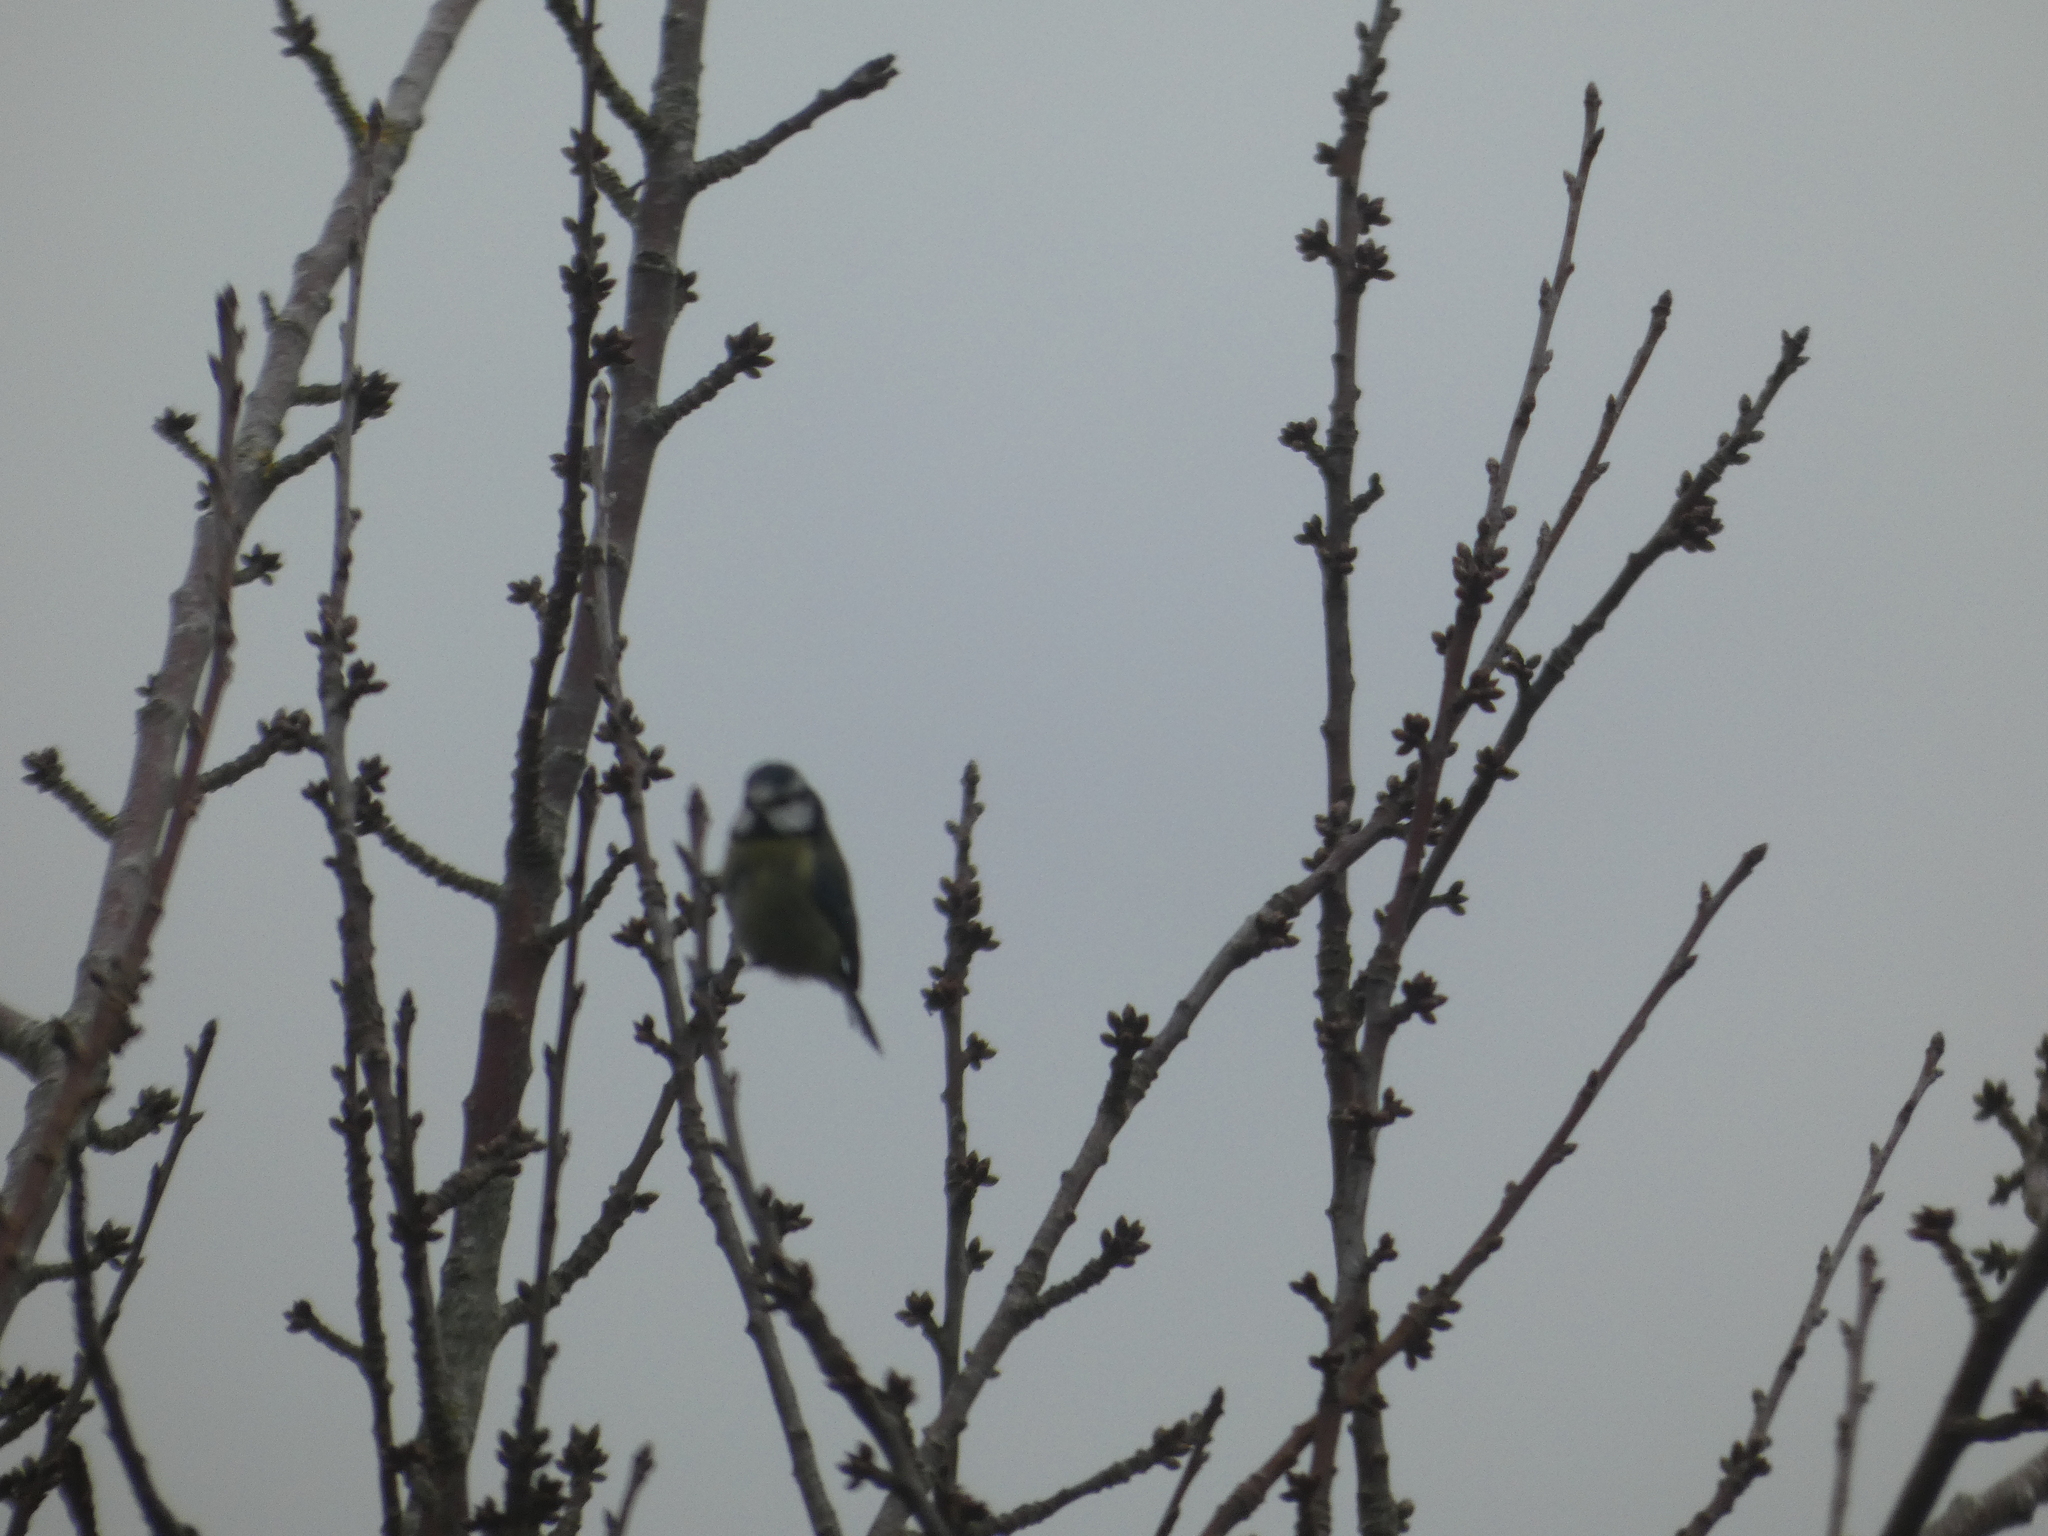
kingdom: Animalia
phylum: Chordata
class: Aves
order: Passeriformes
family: Paridae
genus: Cyanistes
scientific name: Cyanistes caeruleus
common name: Eurasian blue tit
